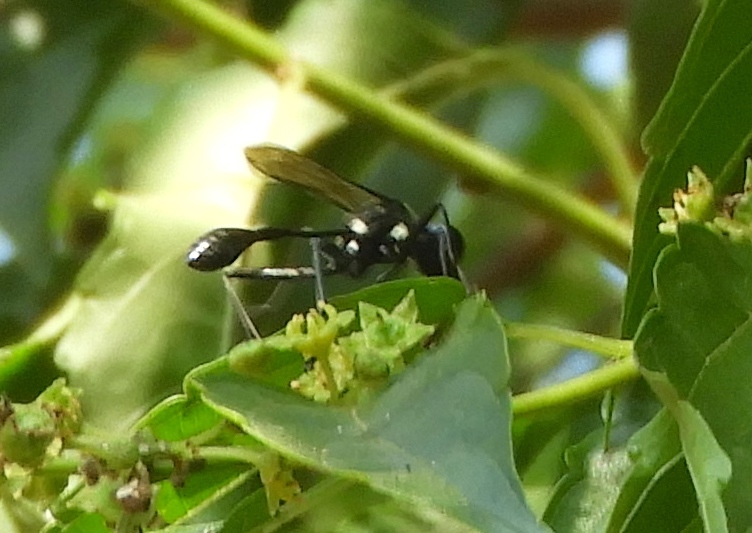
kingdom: Animalia
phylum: Arthropoda
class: Insecta
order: Hymenoptera
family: Sphecidae
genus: Eremnophila
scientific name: Eremnophila
